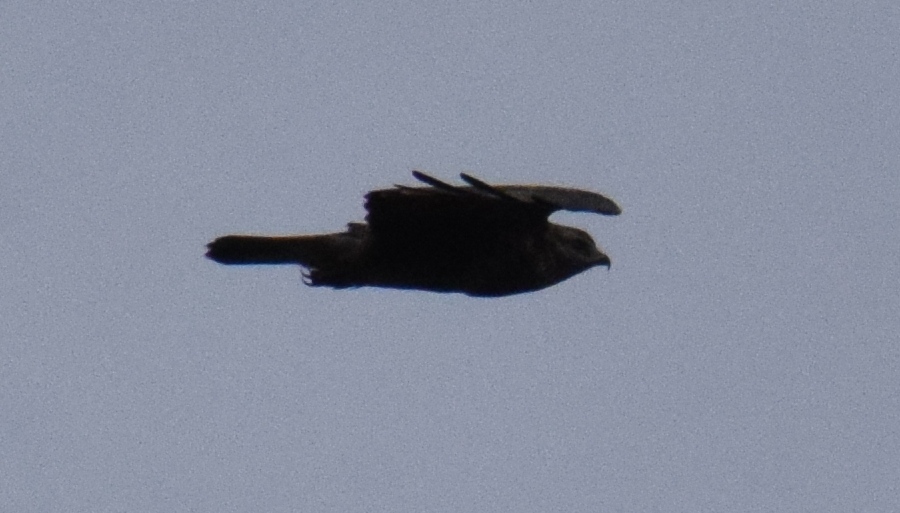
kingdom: Animalia
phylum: Chordata
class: Aves
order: Accipitriformes
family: Accipitridae
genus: Buteo
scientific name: Buteo buteo
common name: Common buzzard
